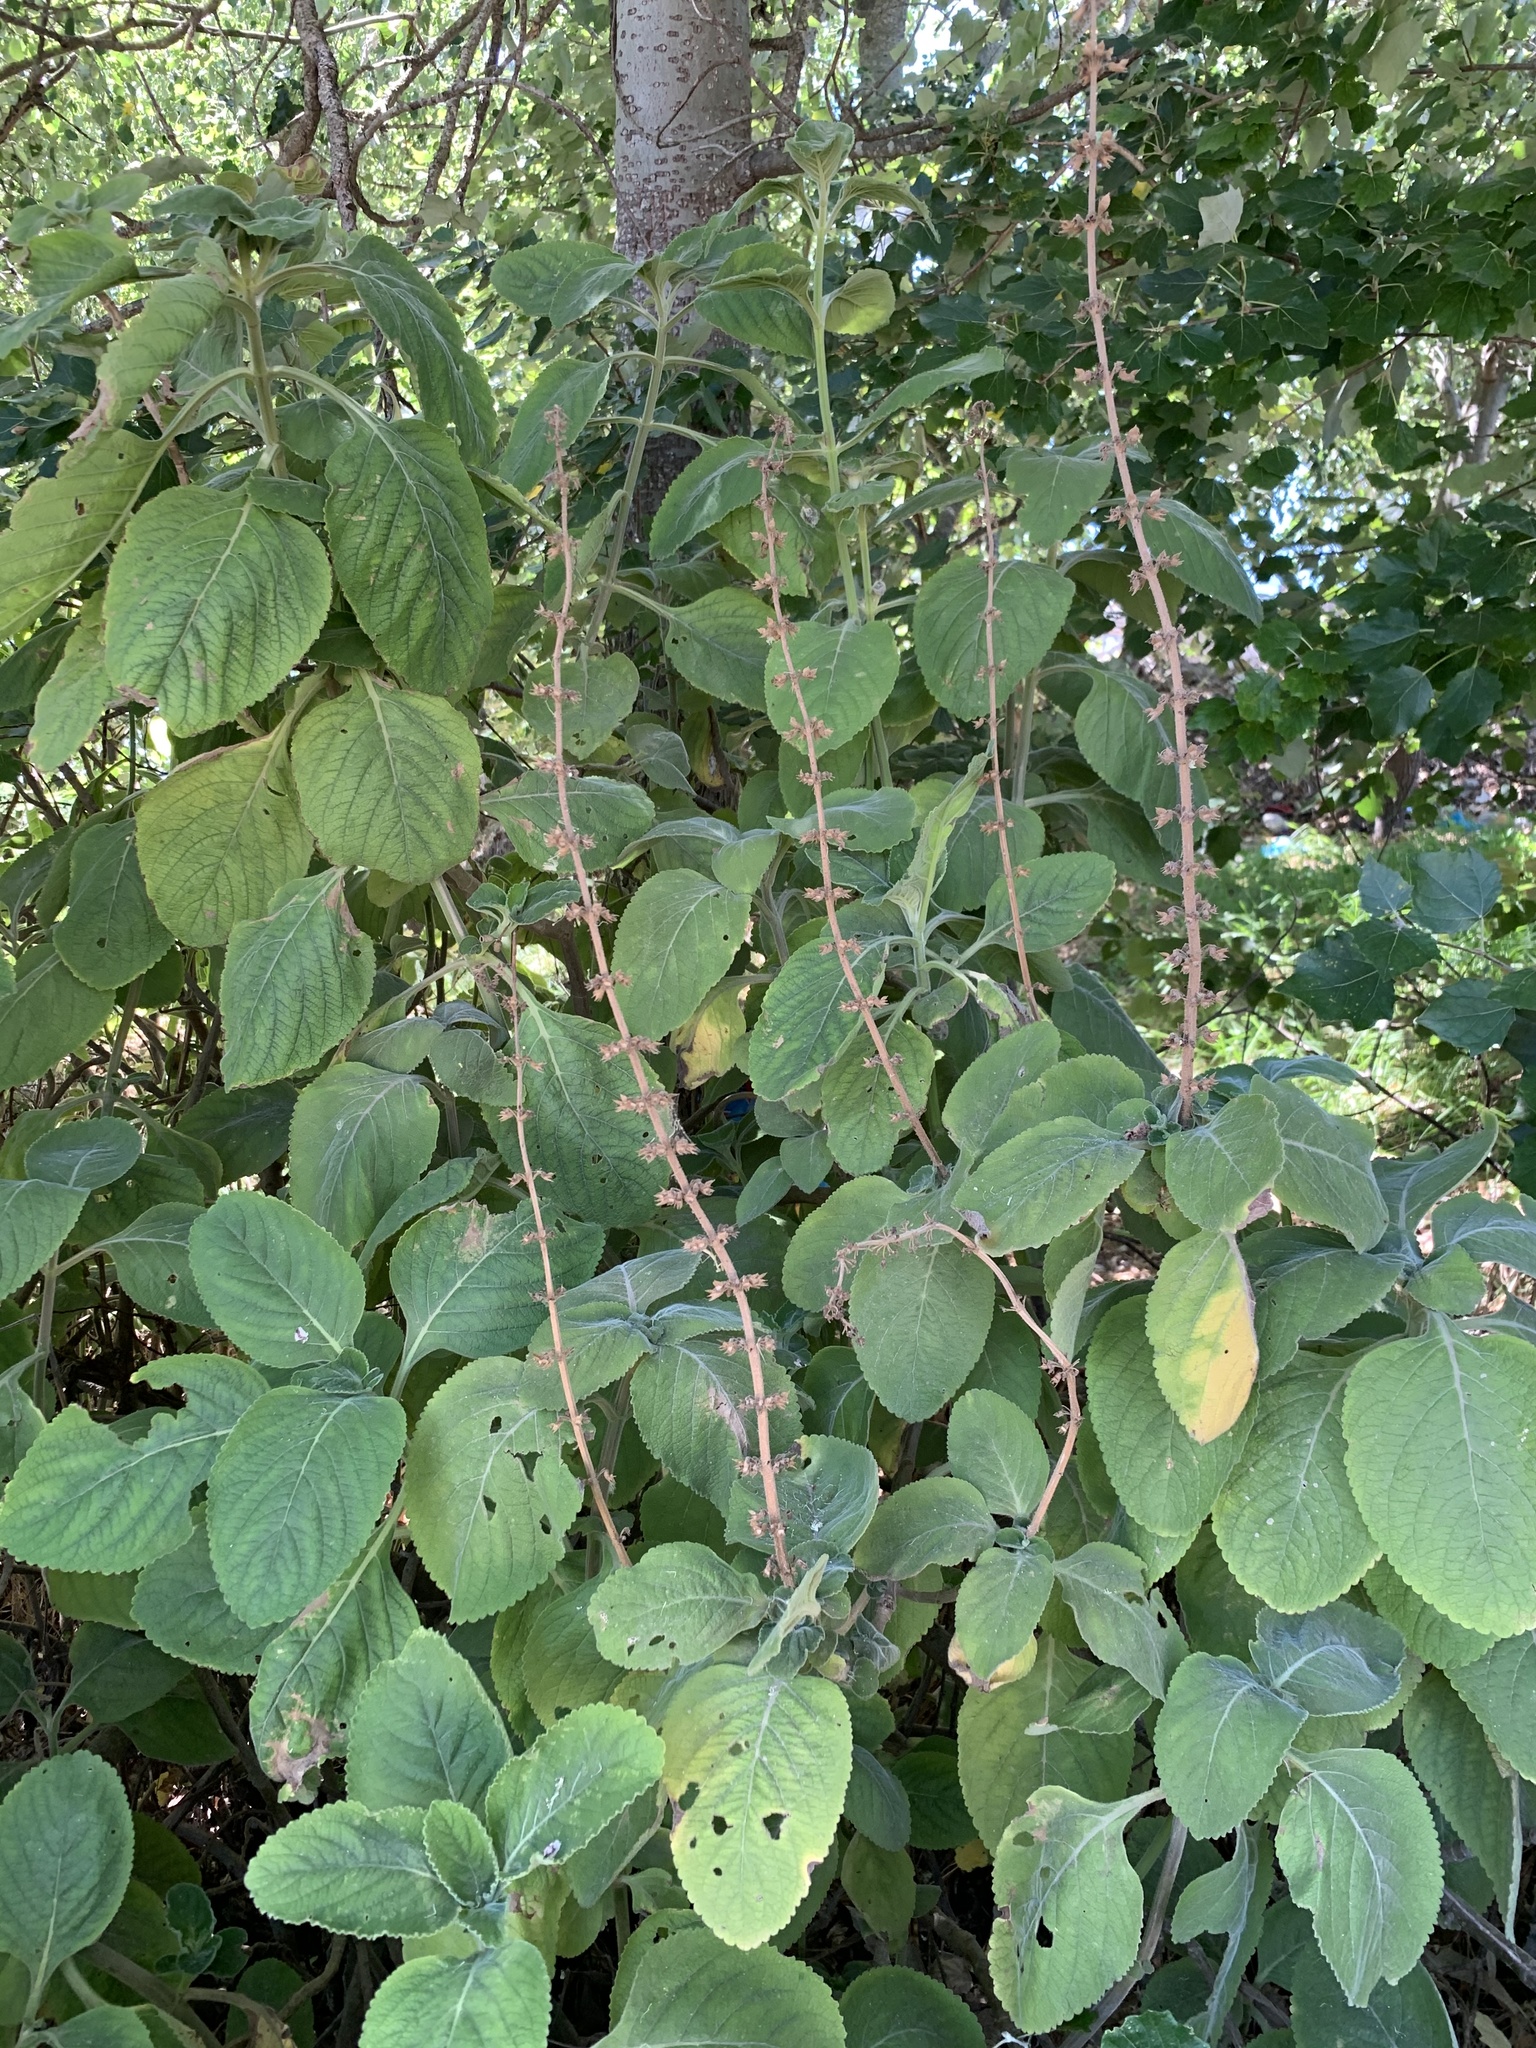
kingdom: Plantae
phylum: Tracheophyta
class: Magnoliopsida
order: Lamiales
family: Lamiaceae
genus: Coleus
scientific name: Coleus barbatus
